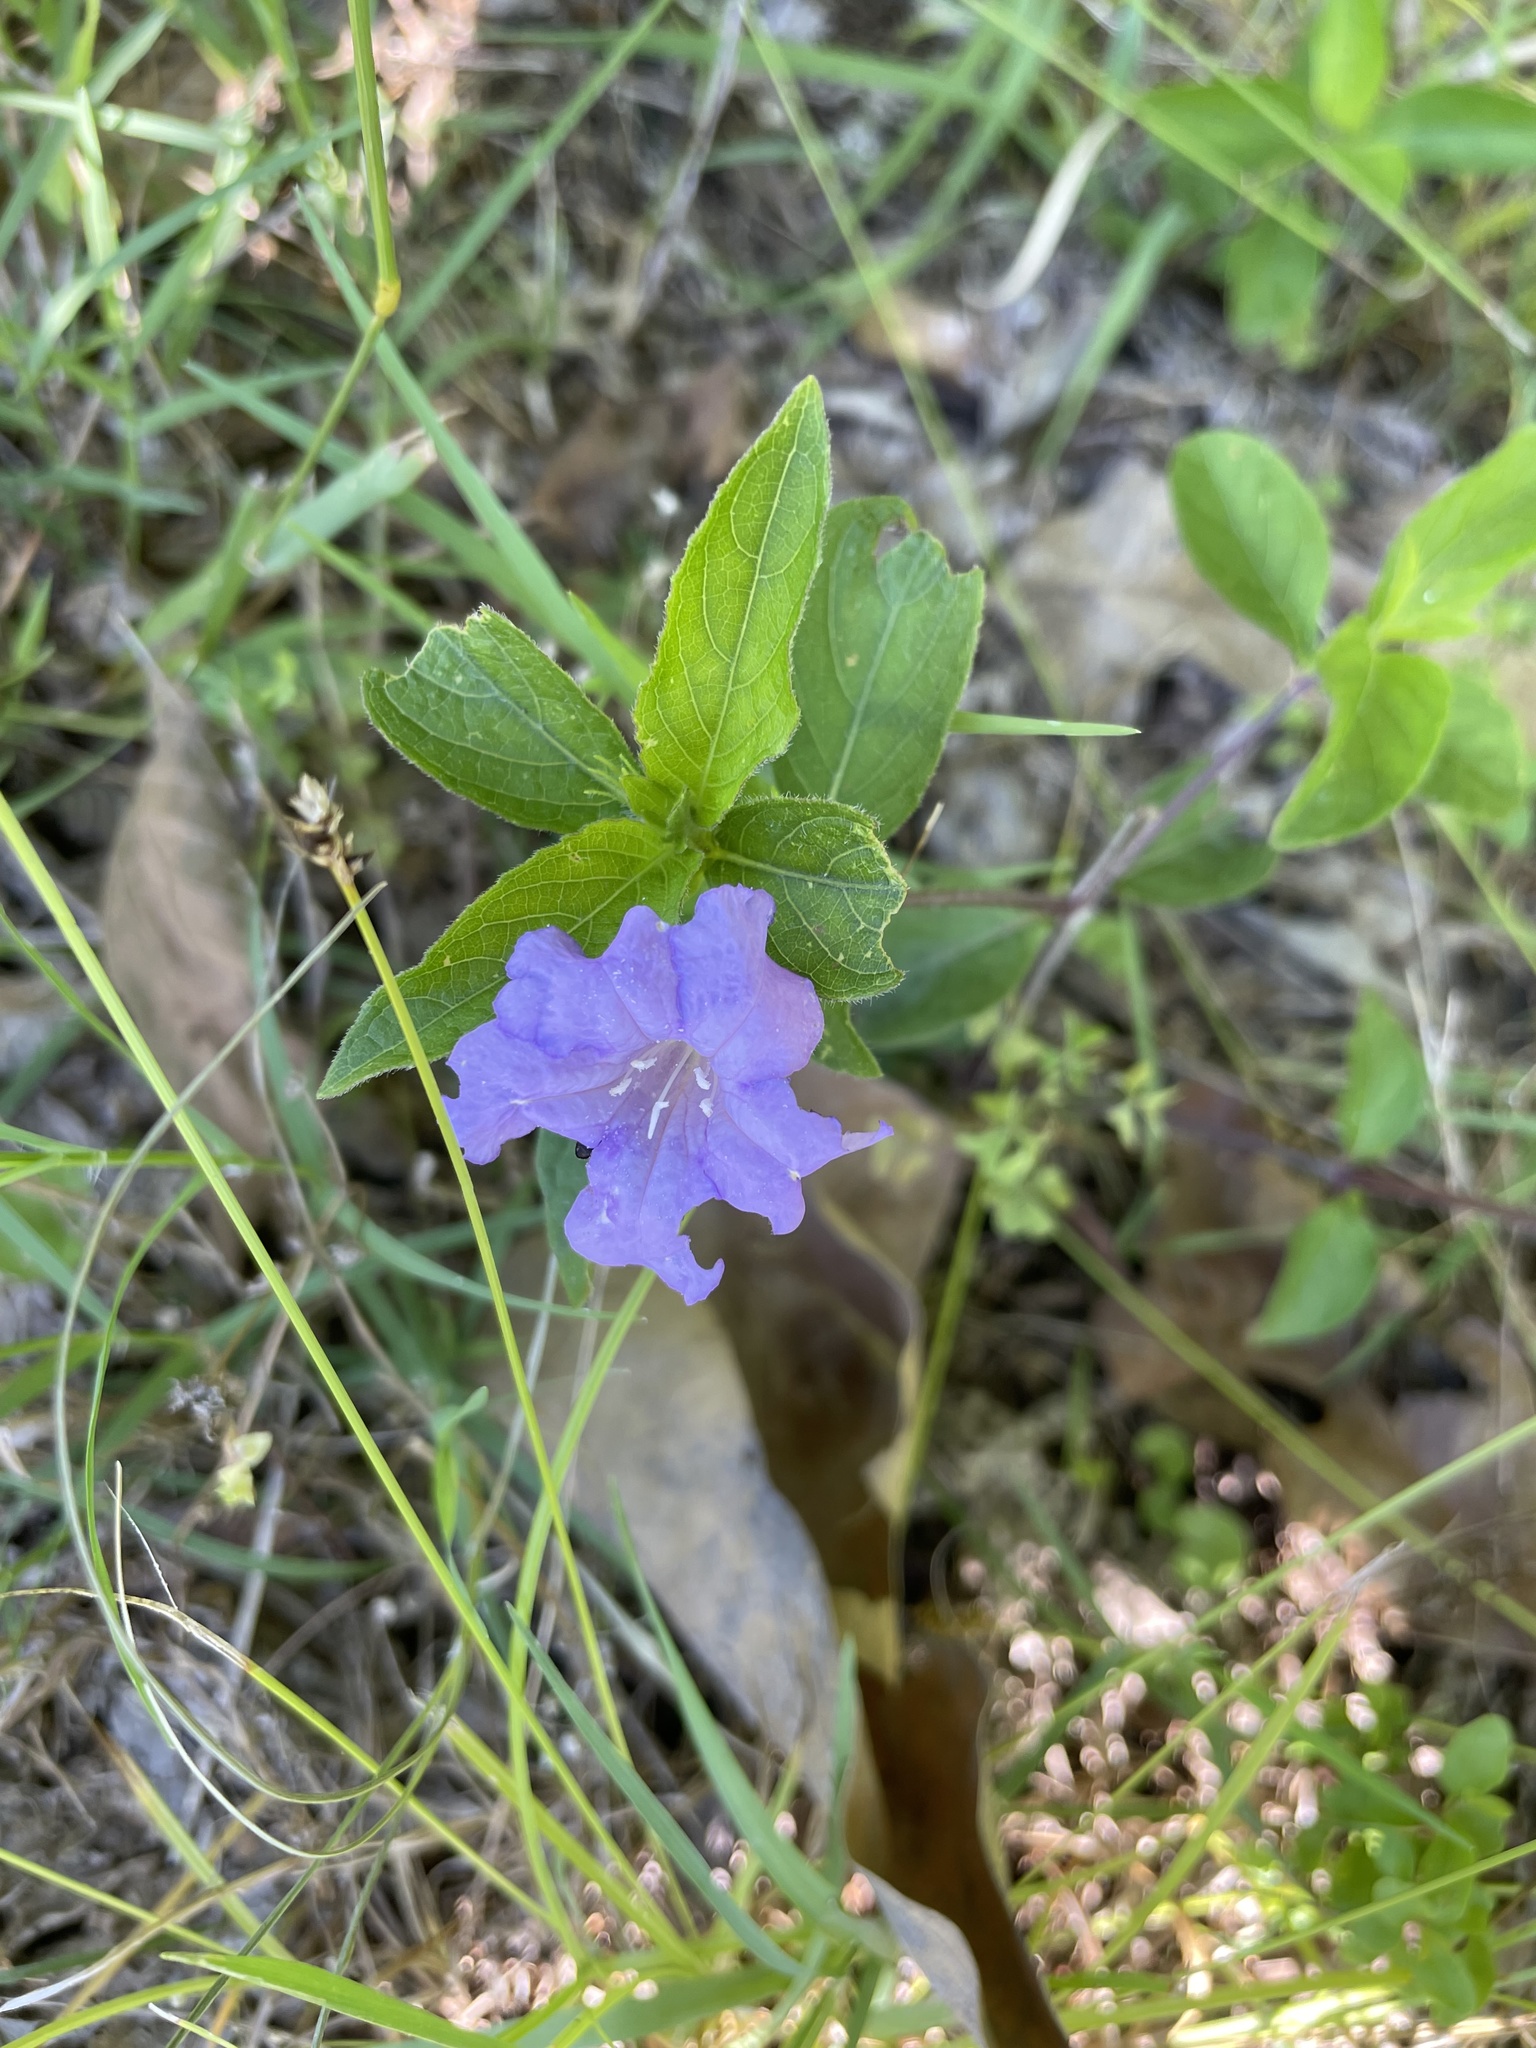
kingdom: Plantae
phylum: Tracheophyta
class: Magnoliopsida
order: Lamiales
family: Acanthaceae
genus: Ruellia
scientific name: Ruellia caroliniensis
